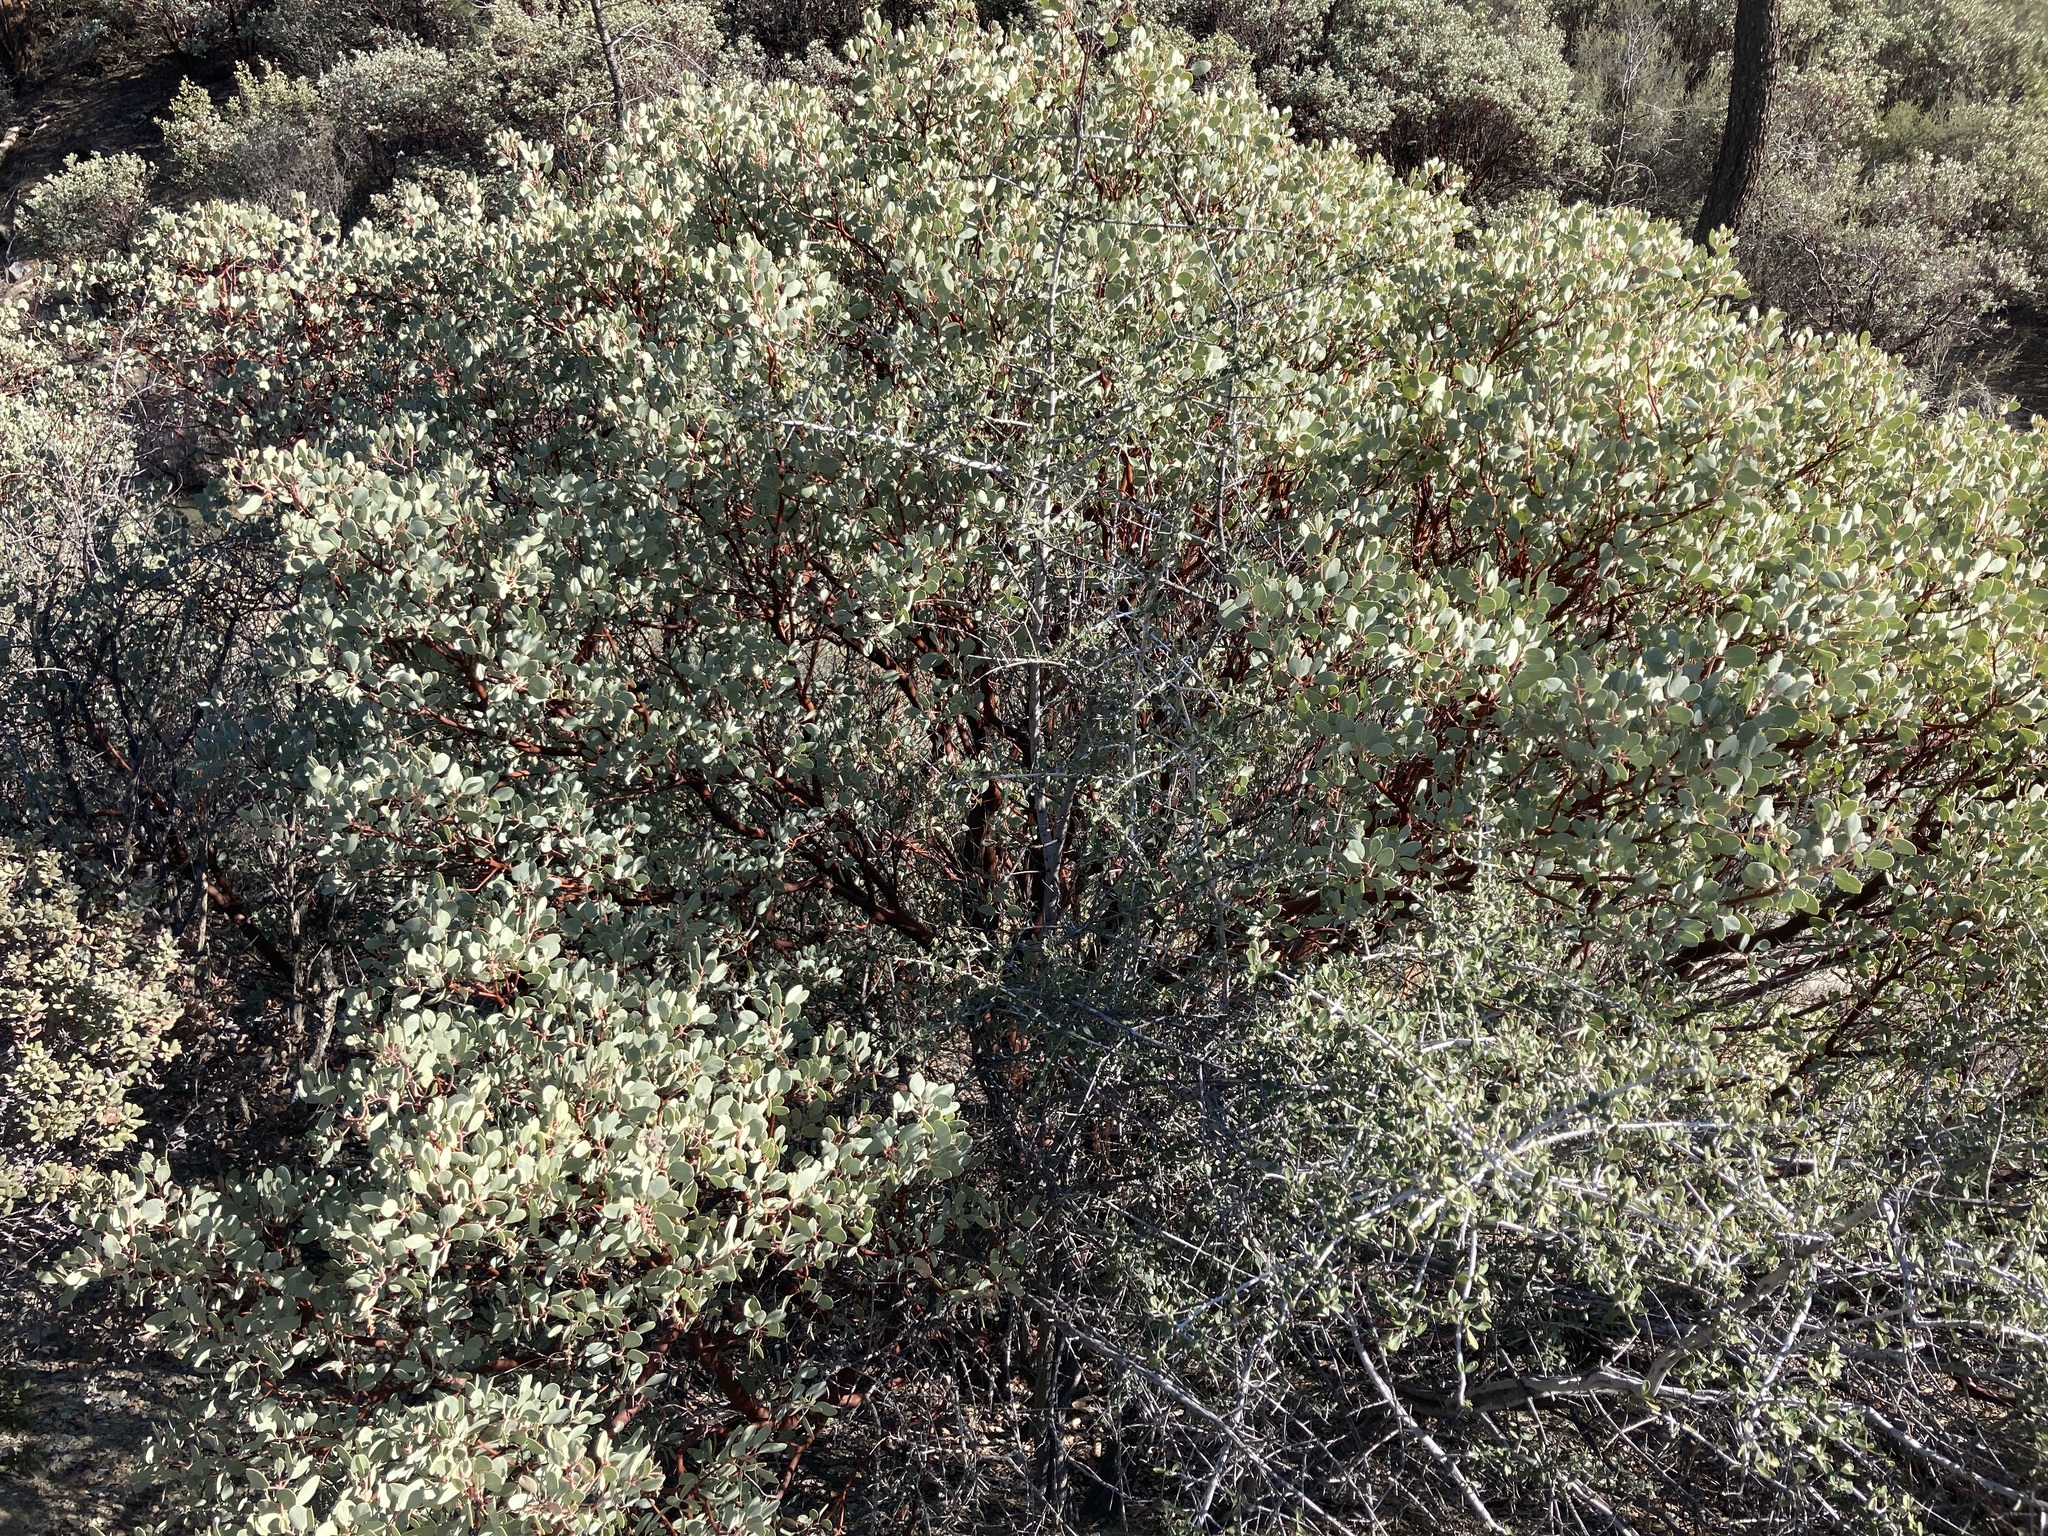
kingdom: Plantae
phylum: Tracheophyta
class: Magnoliopsida
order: Ericales
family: Ericaceae
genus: Arctostaphylos
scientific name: Arctostaphylos glauca
